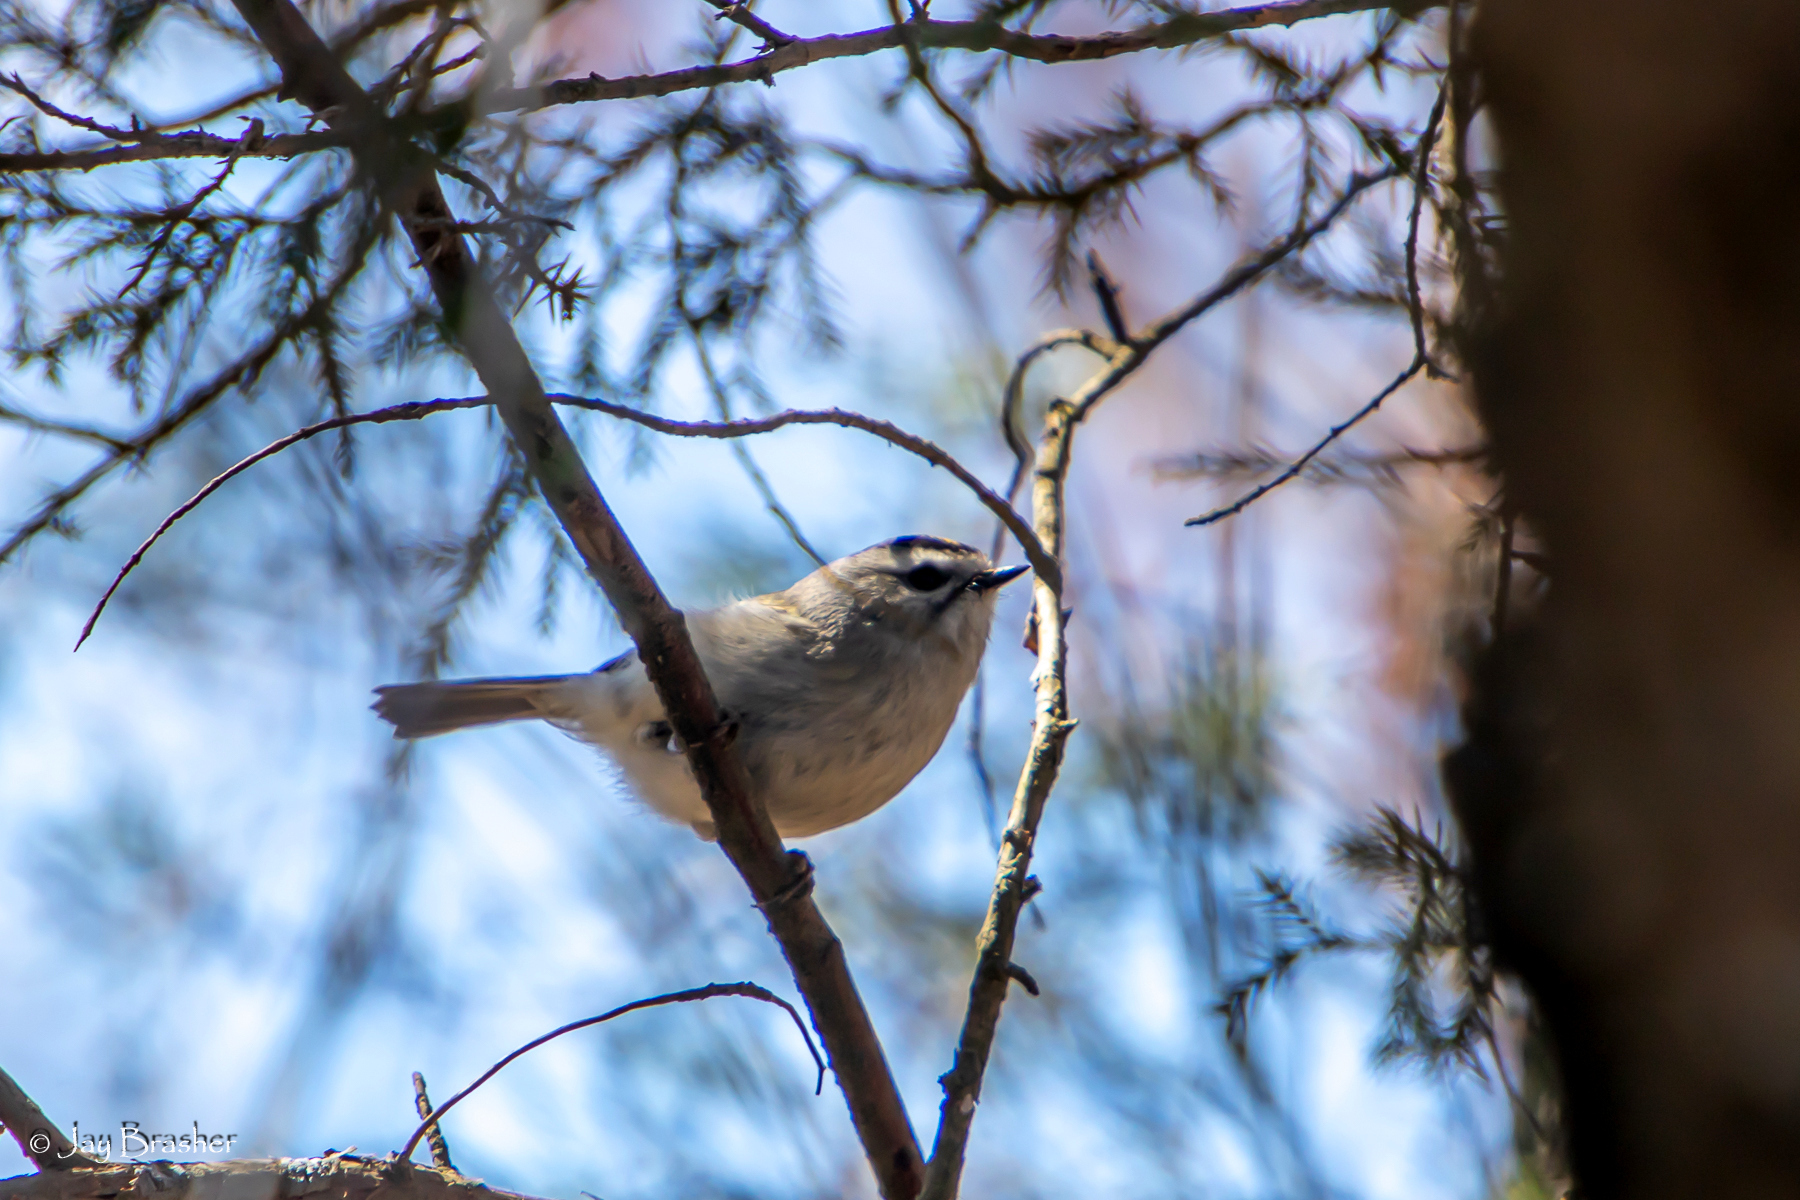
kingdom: Animalia
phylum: Chordata
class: Aves
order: Passeriformes
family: Regulidae
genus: Regulus
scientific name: Regulus satrapa
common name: Golden-crowned kinglet
